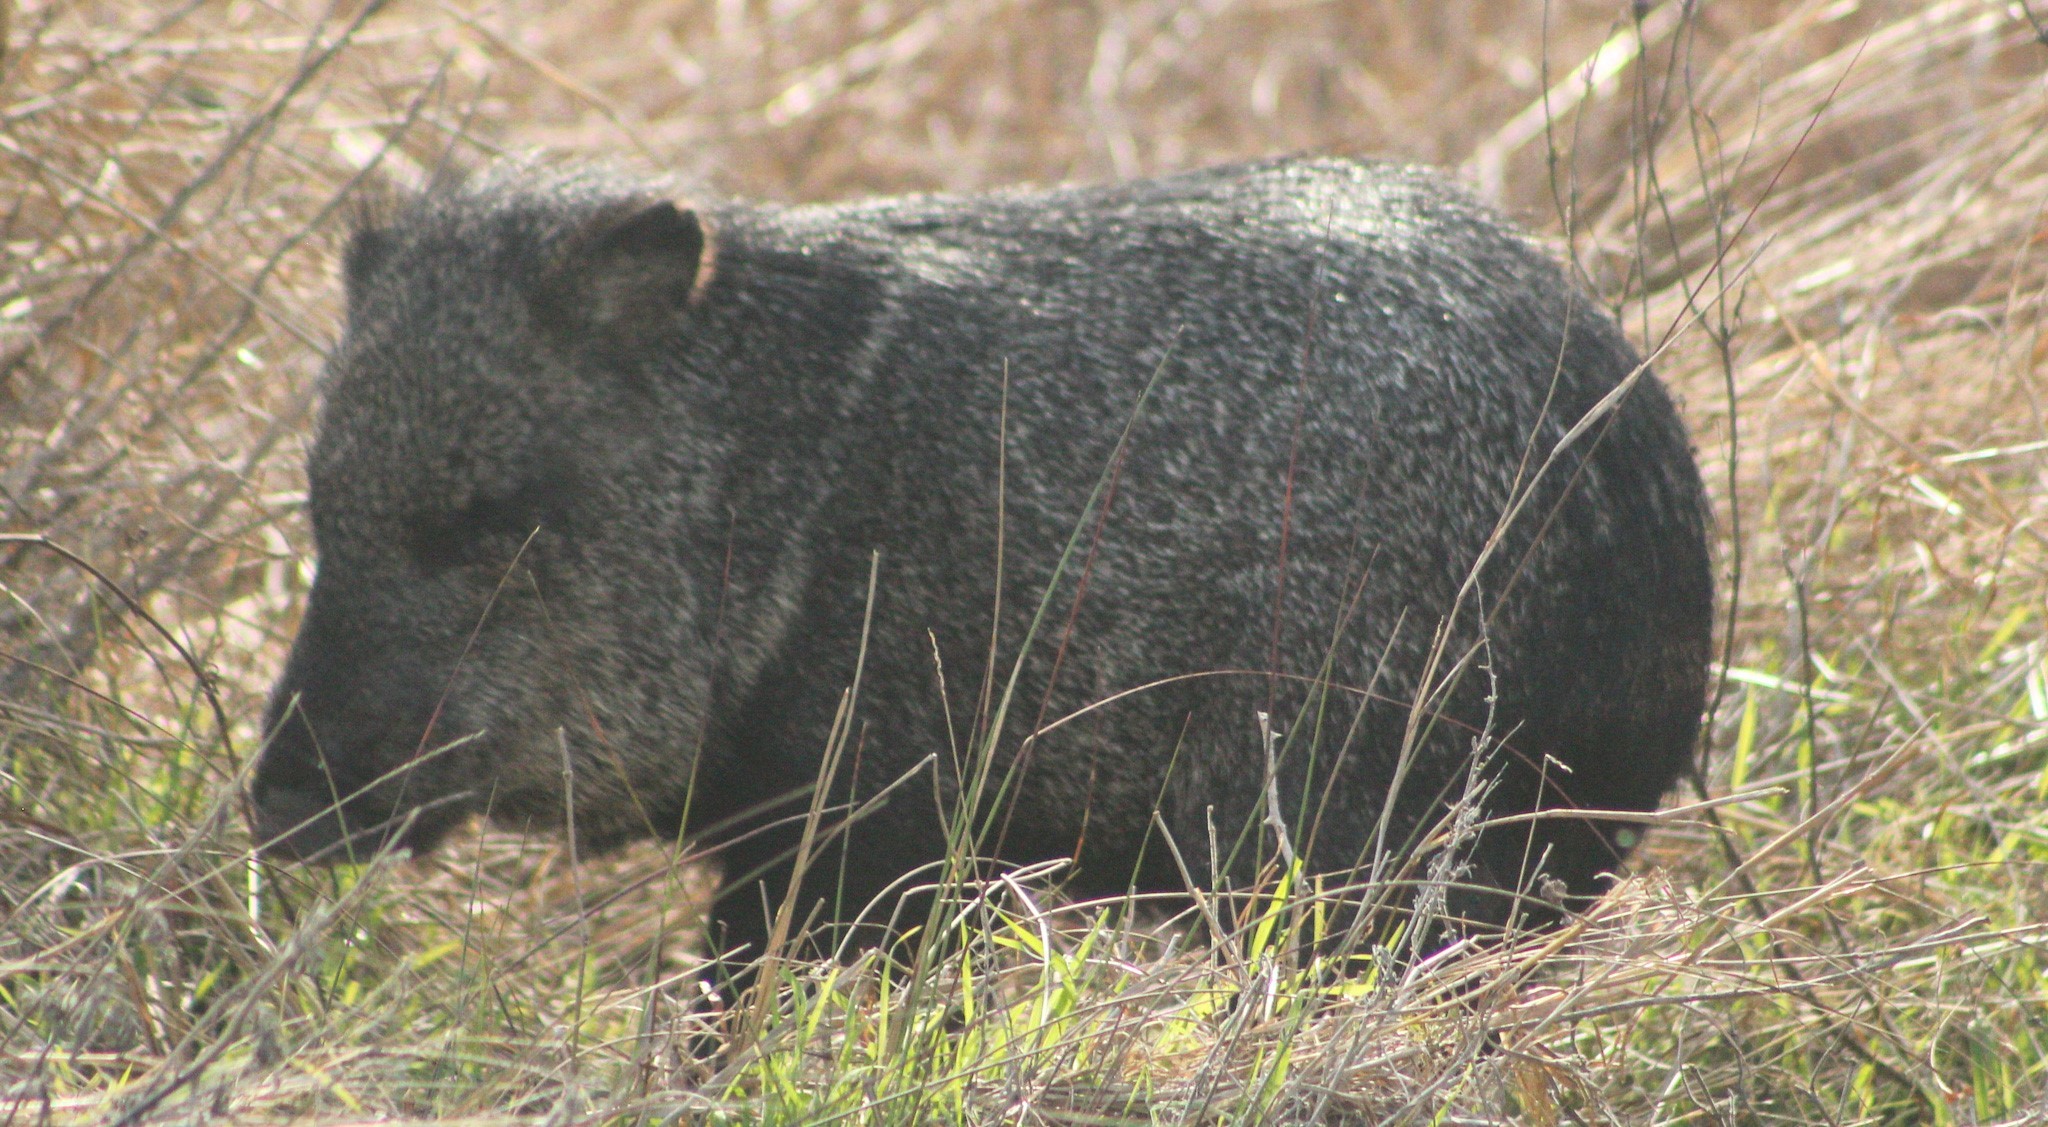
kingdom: Animalia
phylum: Chordata
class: Mammalia
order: Artiodactyla
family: Tayassuidae
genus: Pecari
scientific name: Pecari tajacu
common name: Collared peccary
